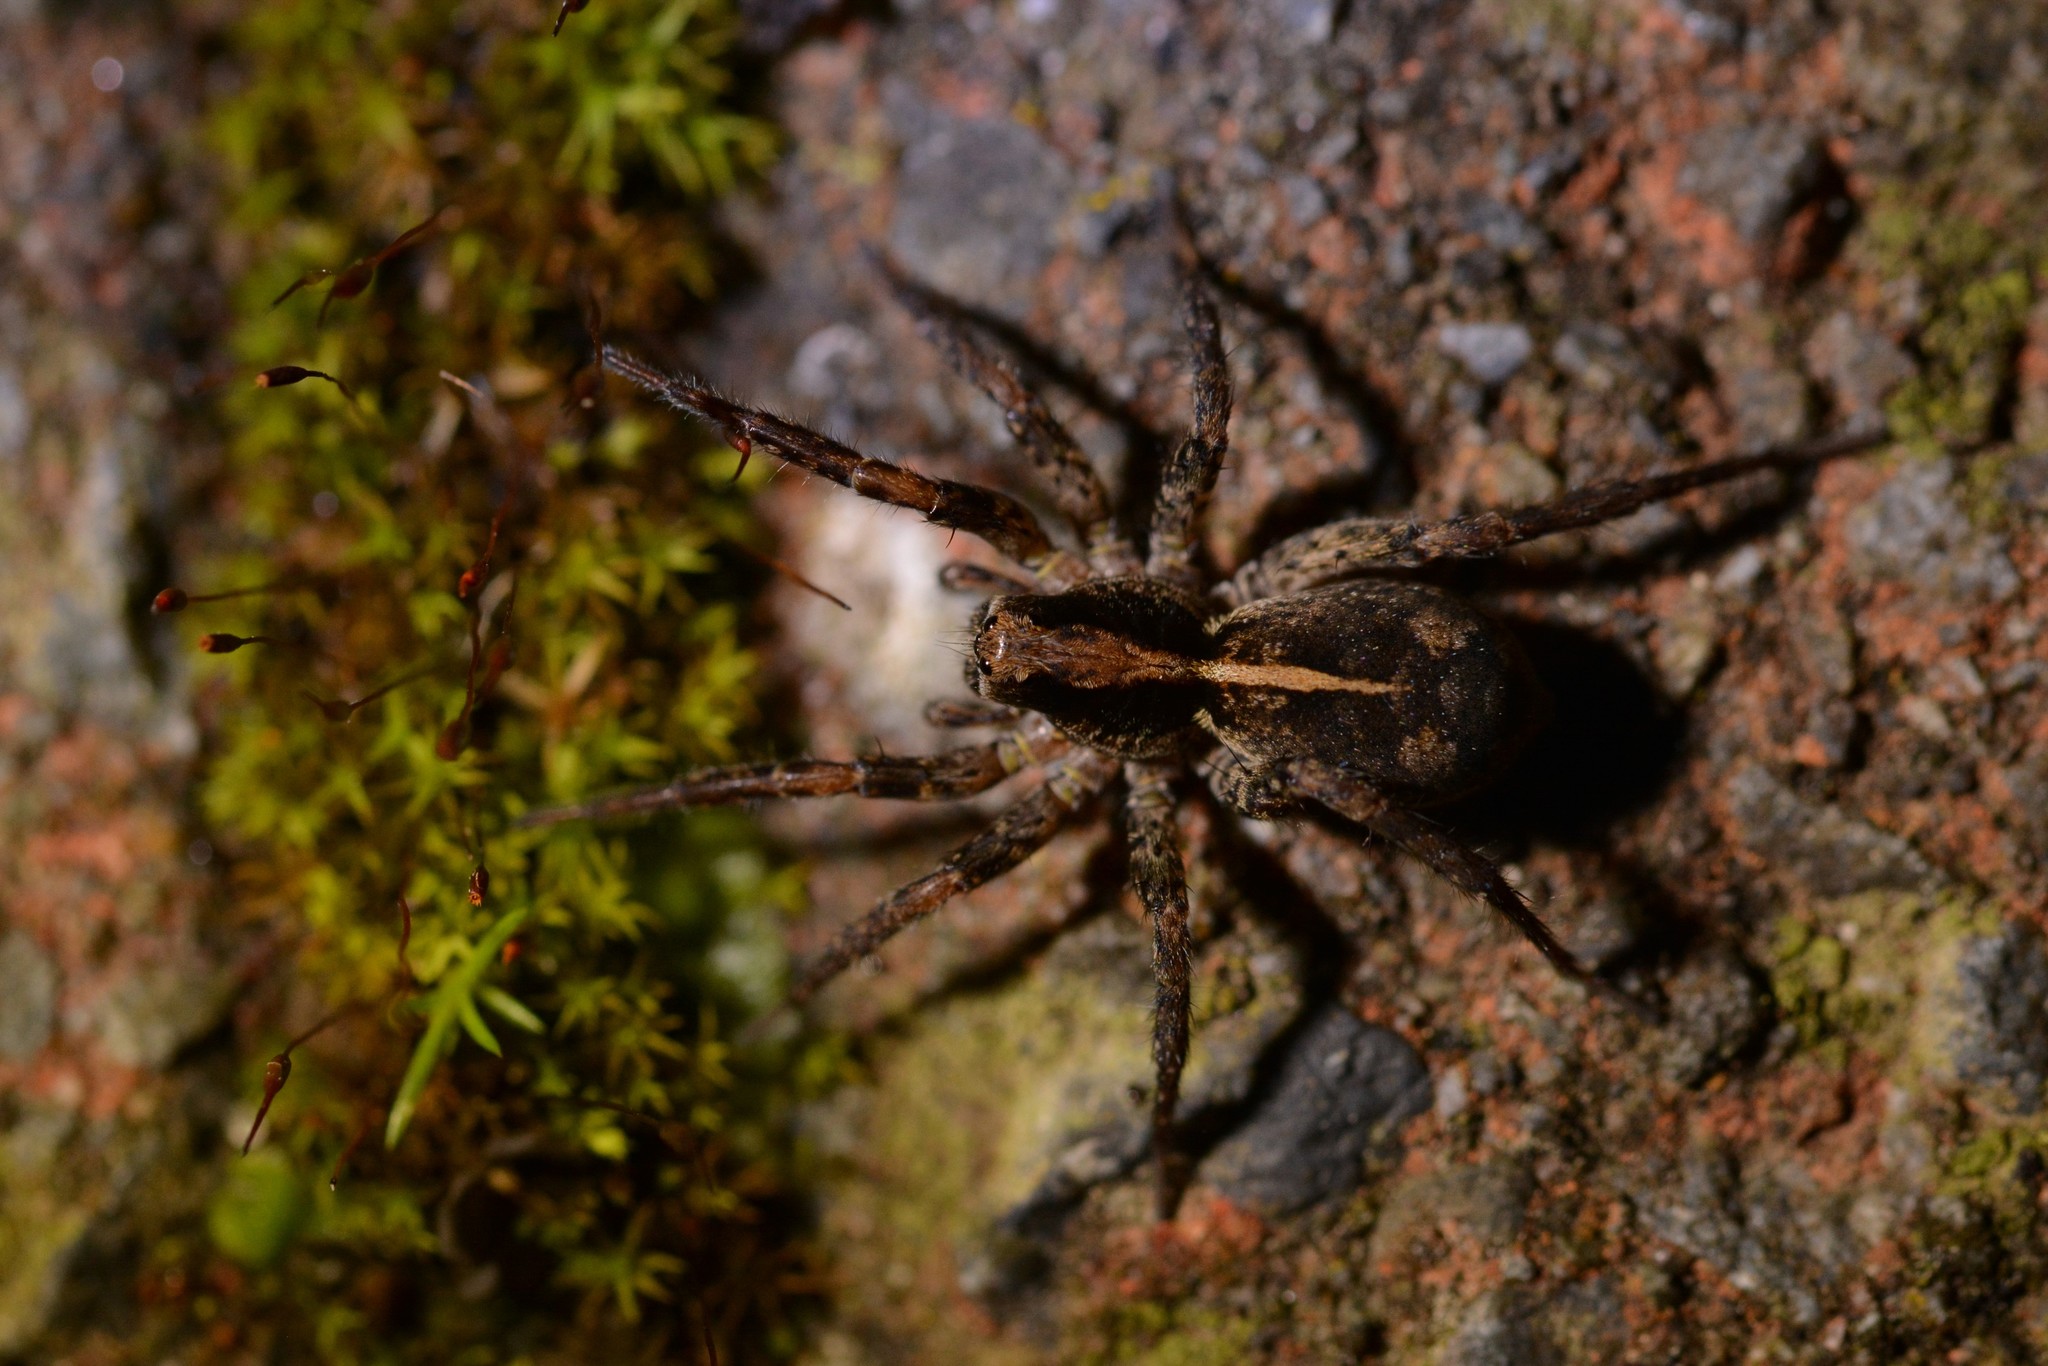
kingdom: Animalia
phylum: Arthropoda
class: Arachnida
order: Araneae
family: Lycosidae
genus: Anoteropsis
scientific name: Anoteropsis hilaris
